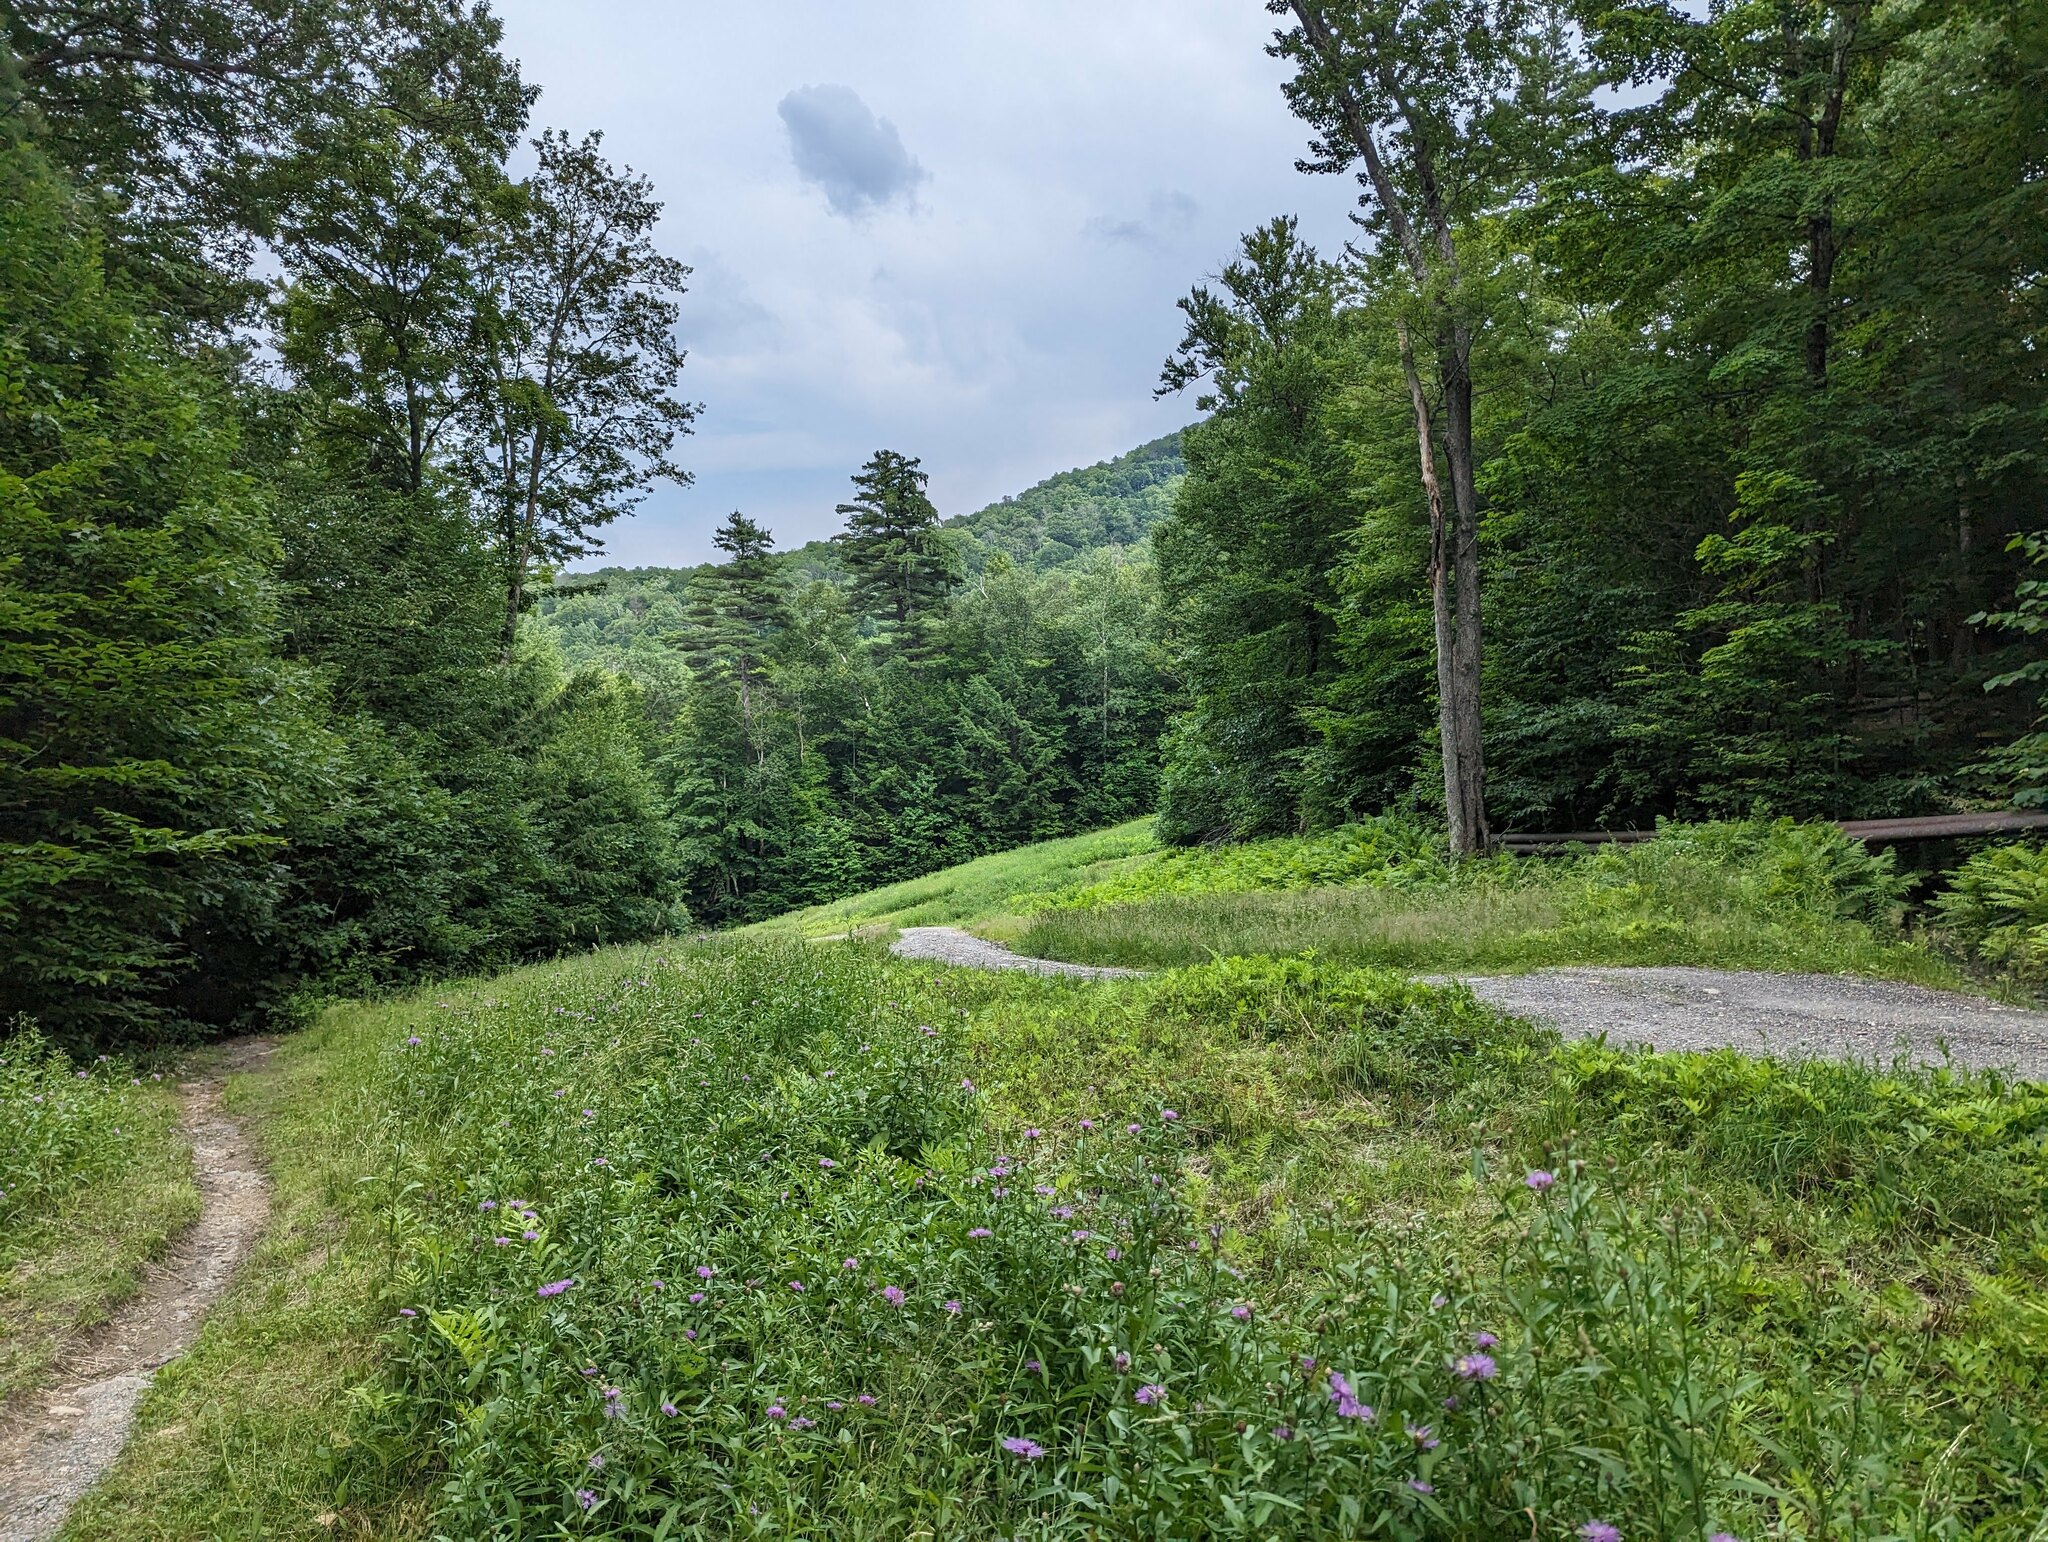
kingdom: Plantae
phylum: Tracheophyta
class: Pinopsida
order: Pinales
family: Pinaceae
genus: Pinus
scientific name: Pinus strobus
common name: Weymouth pine
